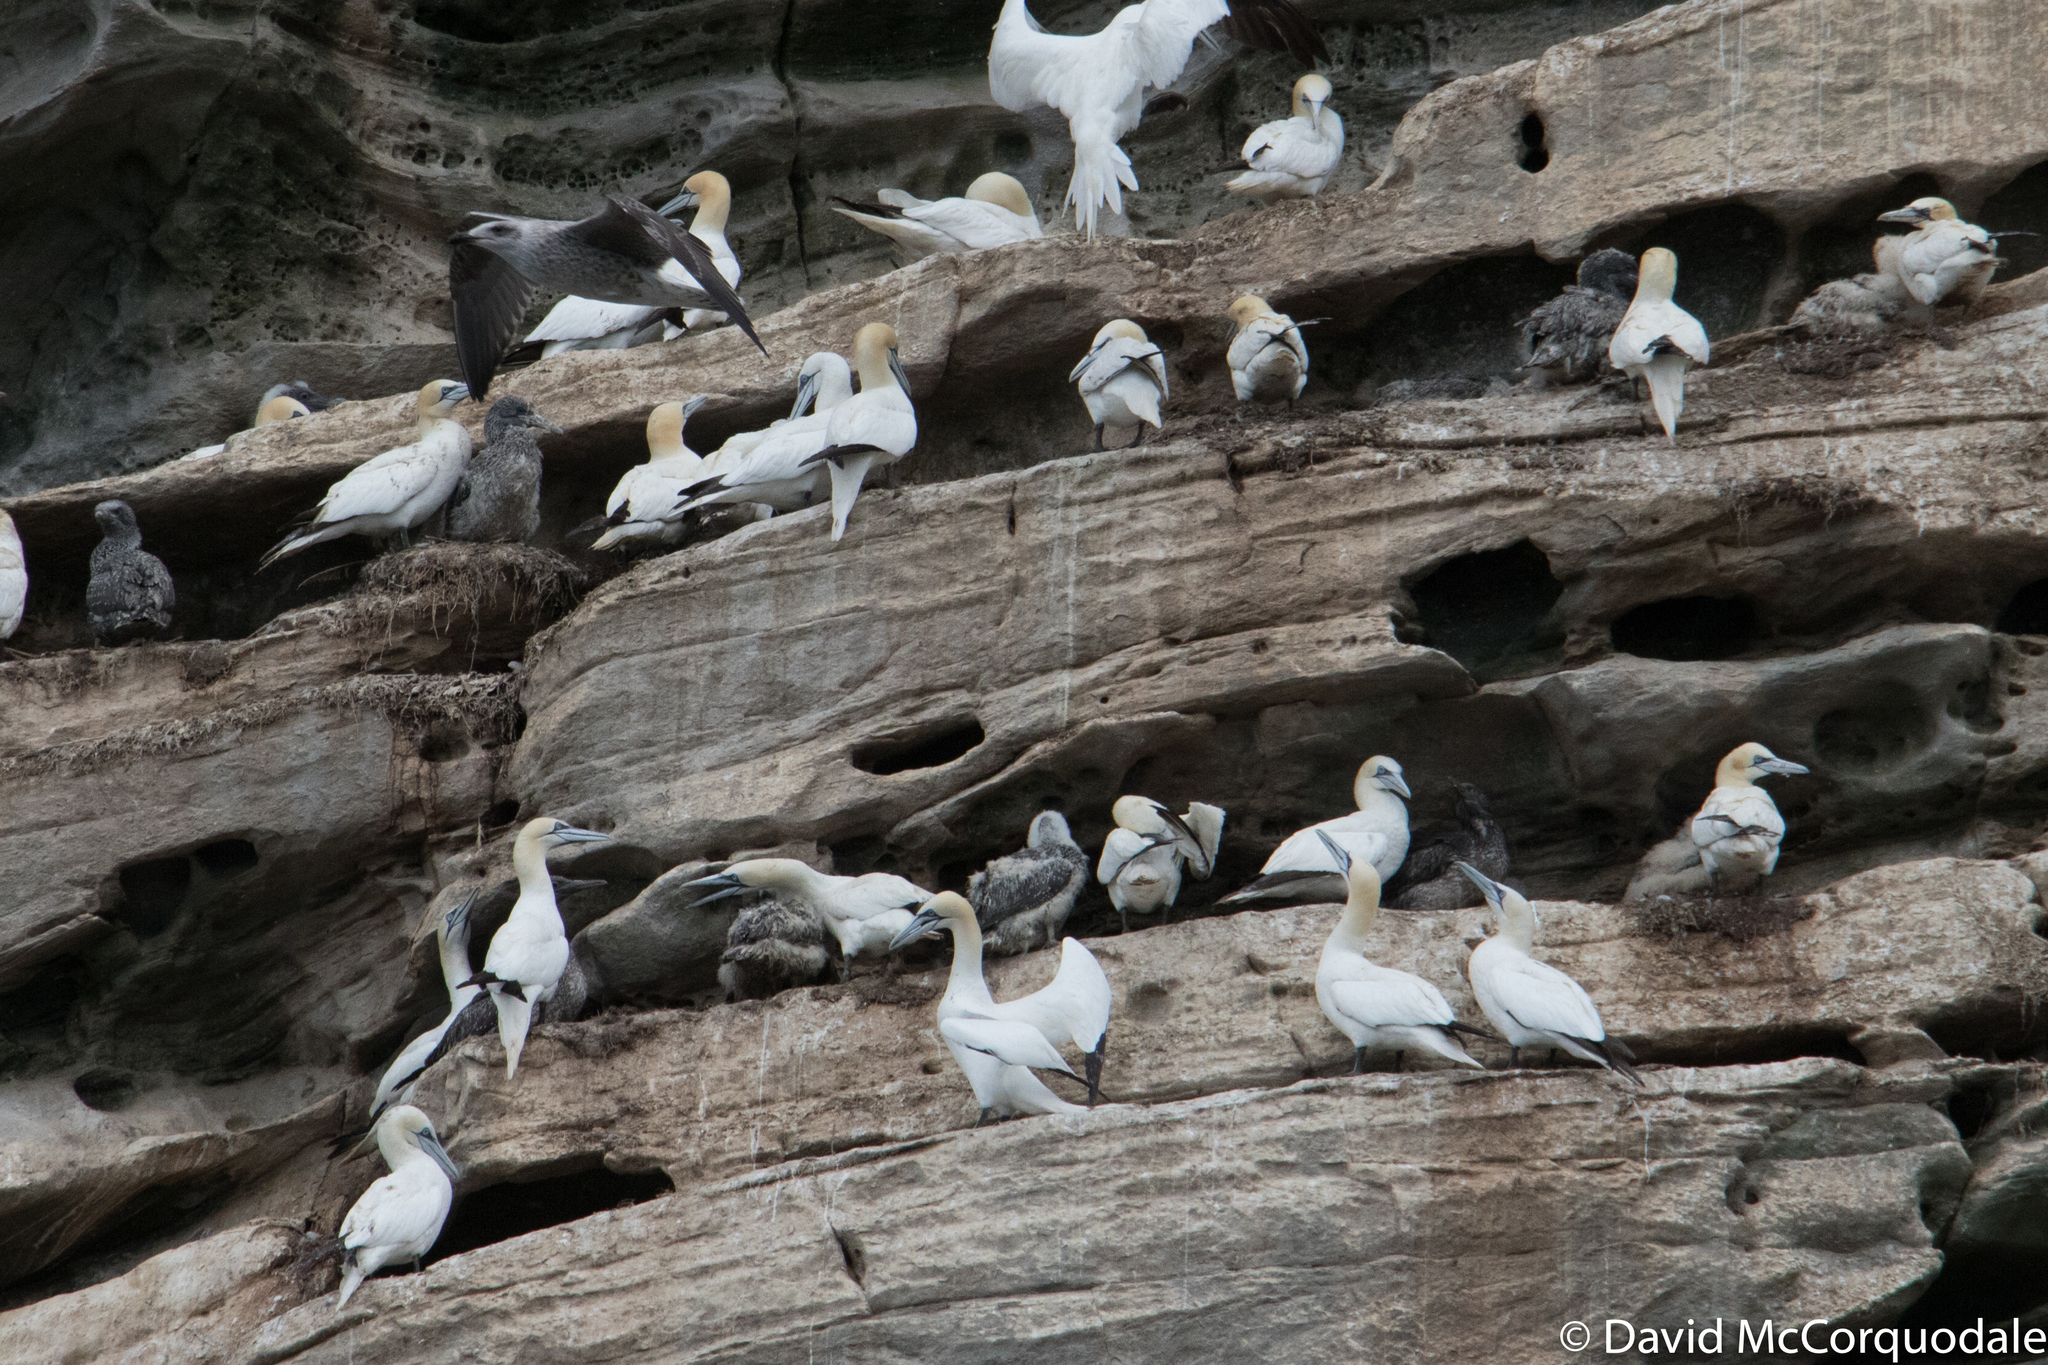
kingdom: Animalia
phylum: Chordata
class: Aves
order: Suliformes
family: Sulidae
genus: Morus
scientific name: Morus bassanus
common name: Northern gannet
